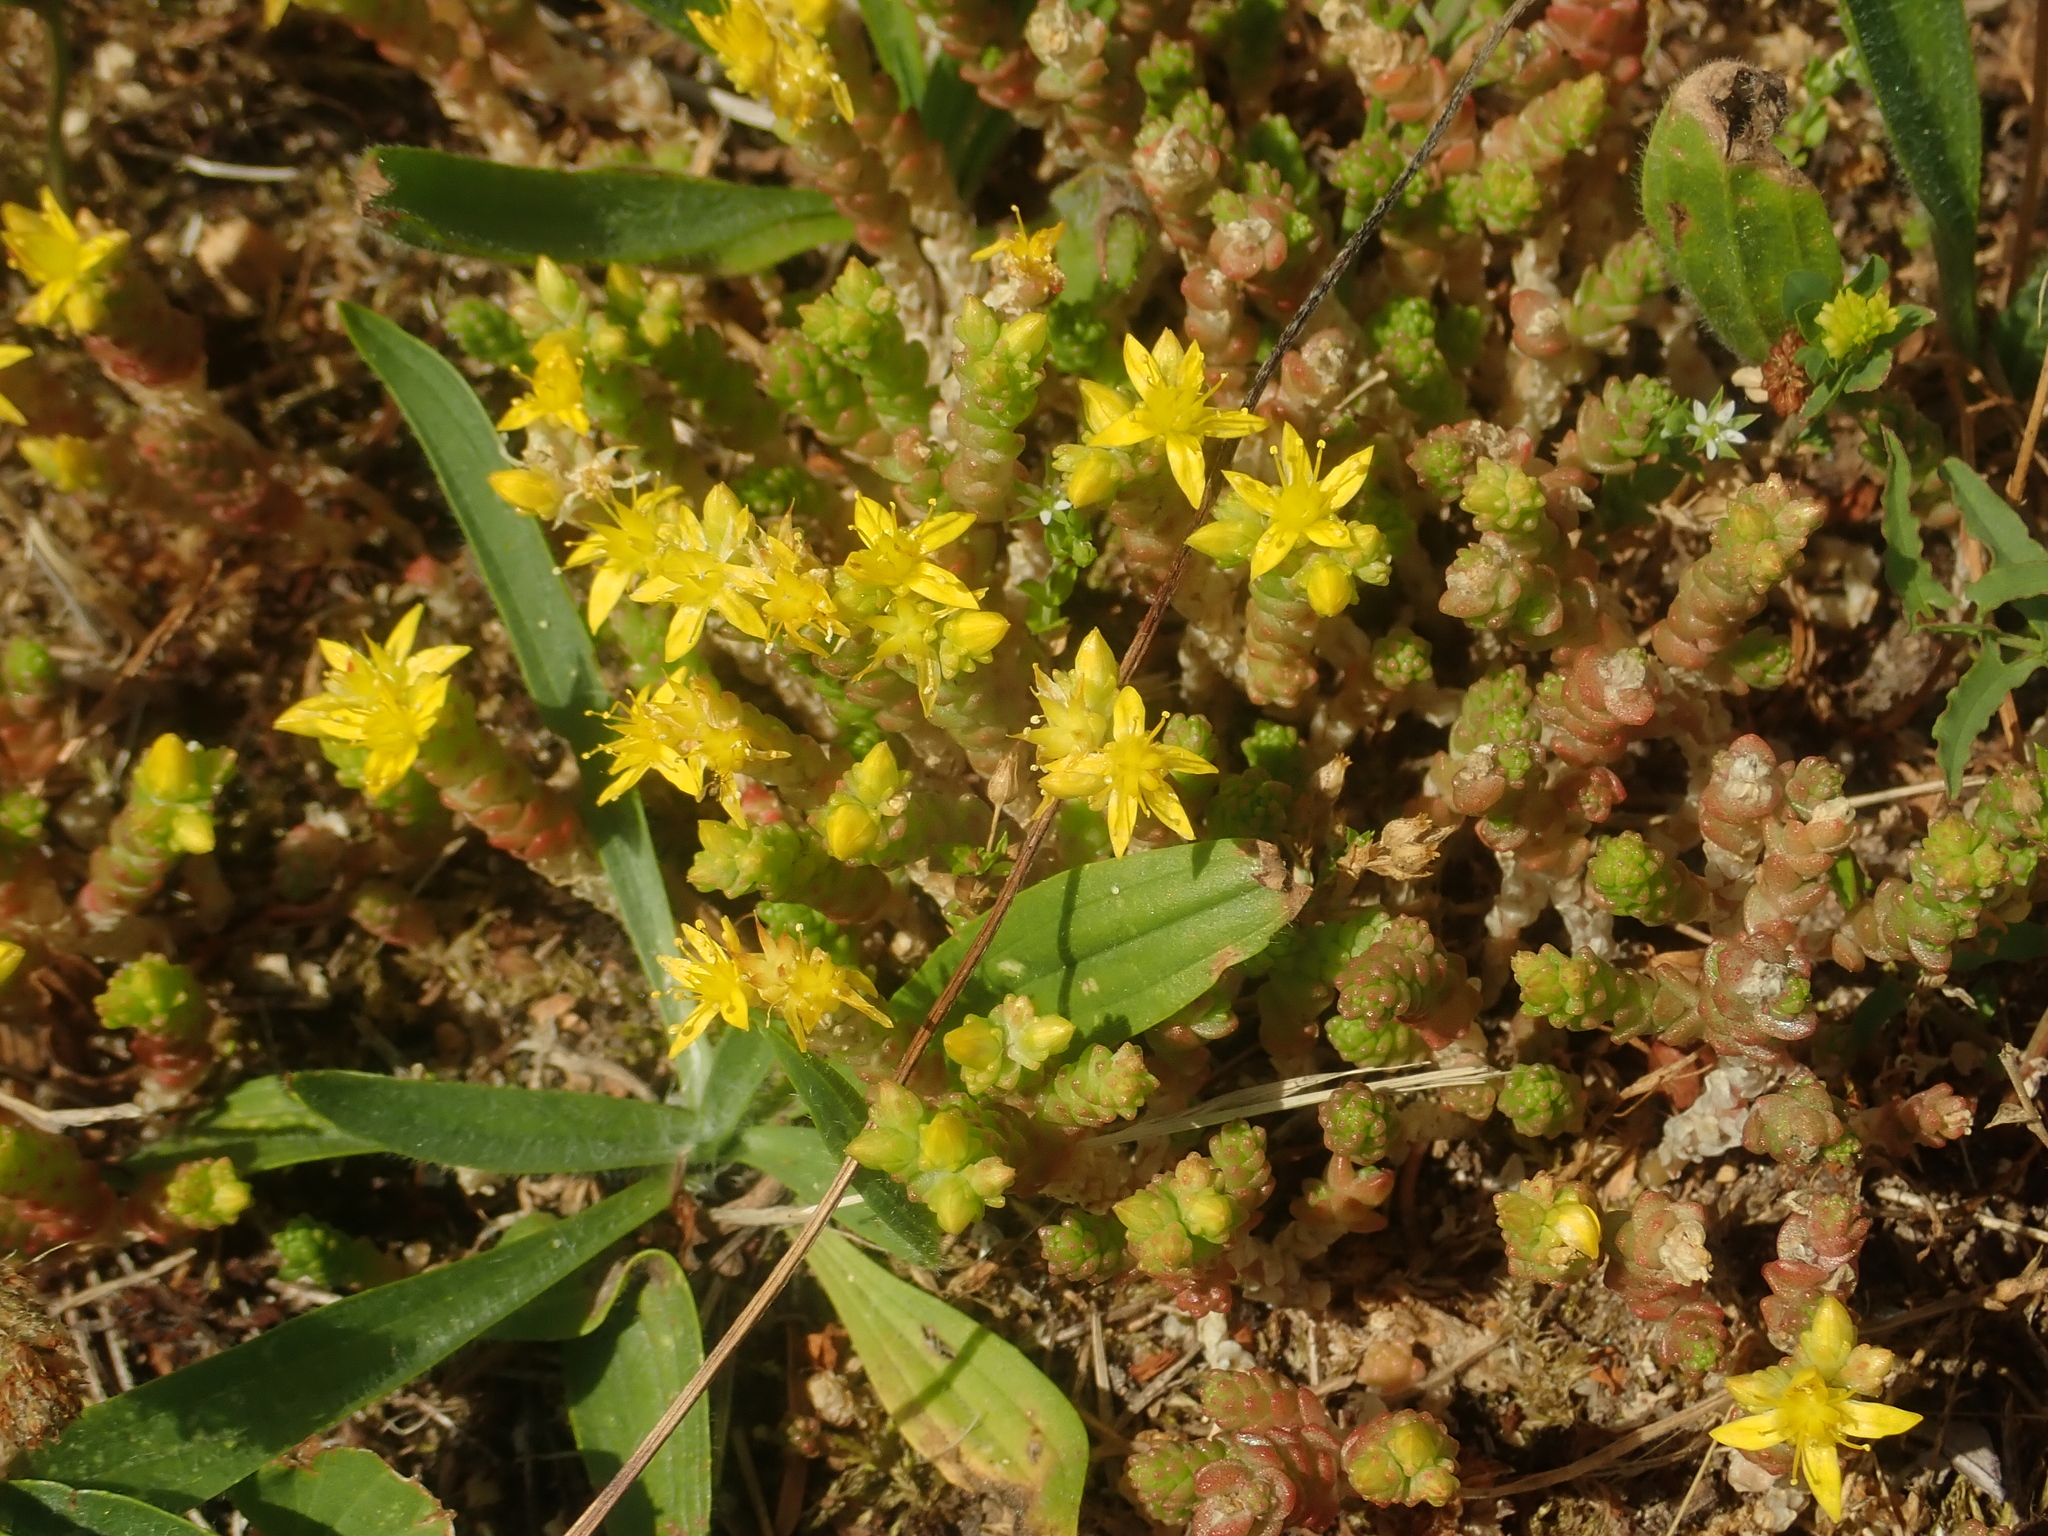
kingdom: Plantae
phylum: Tracheophyta
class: Magnoliopsida
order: Saxifragales
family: Crassulaceae
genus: Sedum
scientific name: Sedum acre
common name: Biting stonecrop
